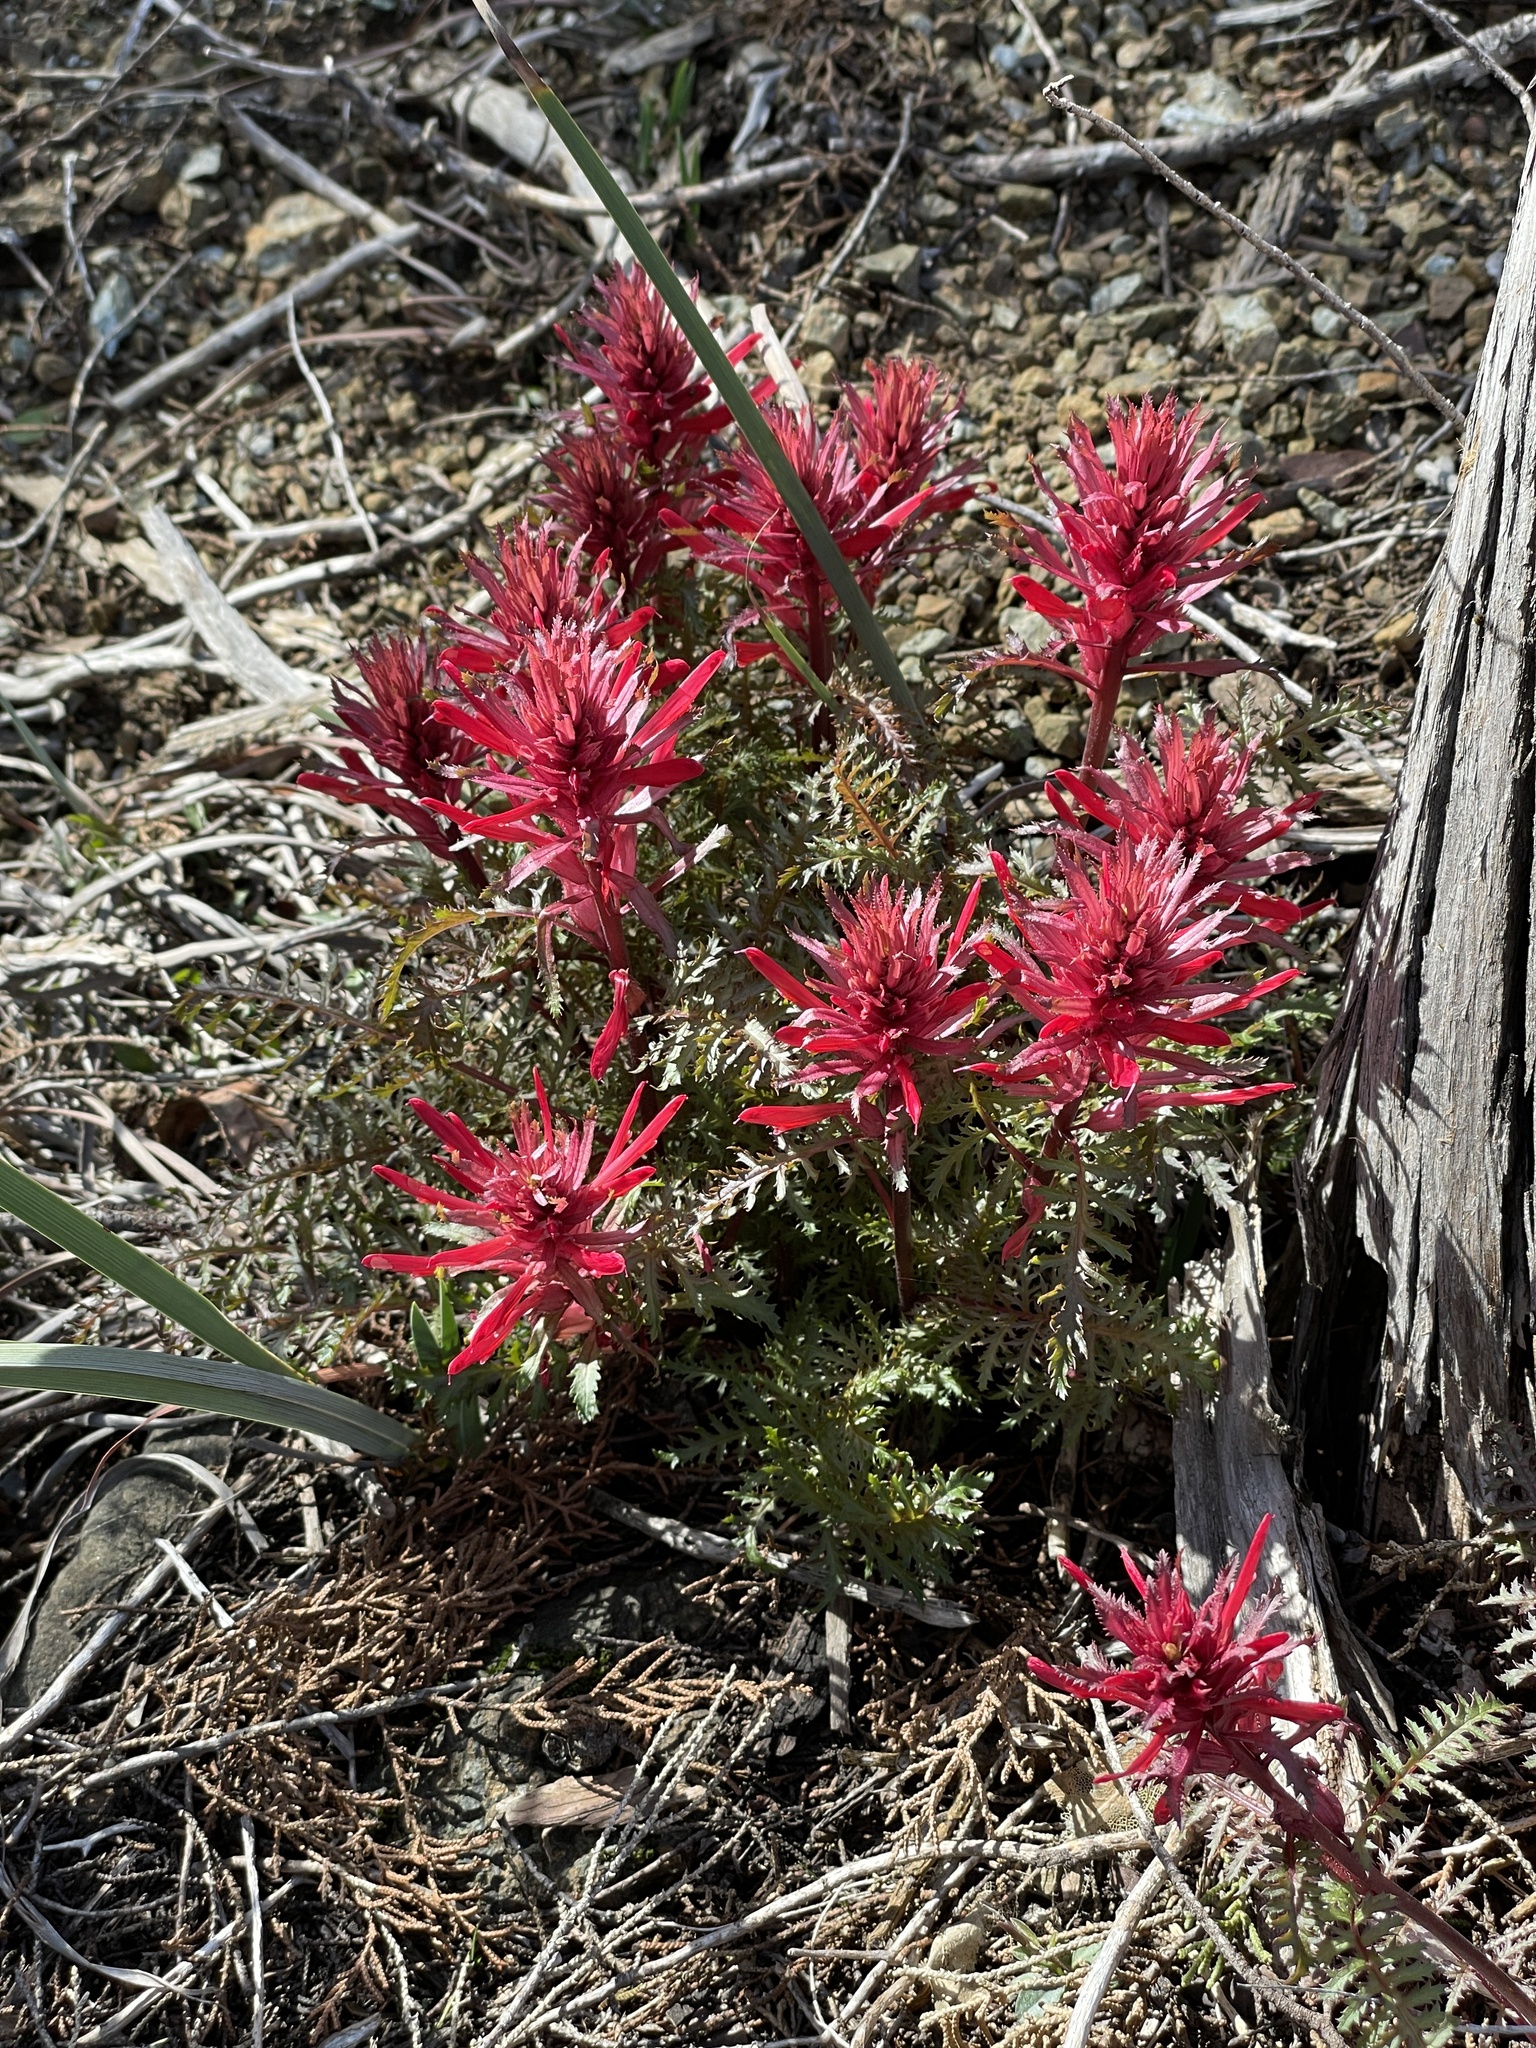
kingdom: Plantae
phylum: Tracheophyta
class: Magnoliopsida
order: Lamiales
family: Orobanchaceae
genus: Pedicularis
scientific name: Pedicularis densiflora
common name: Indian warrior
